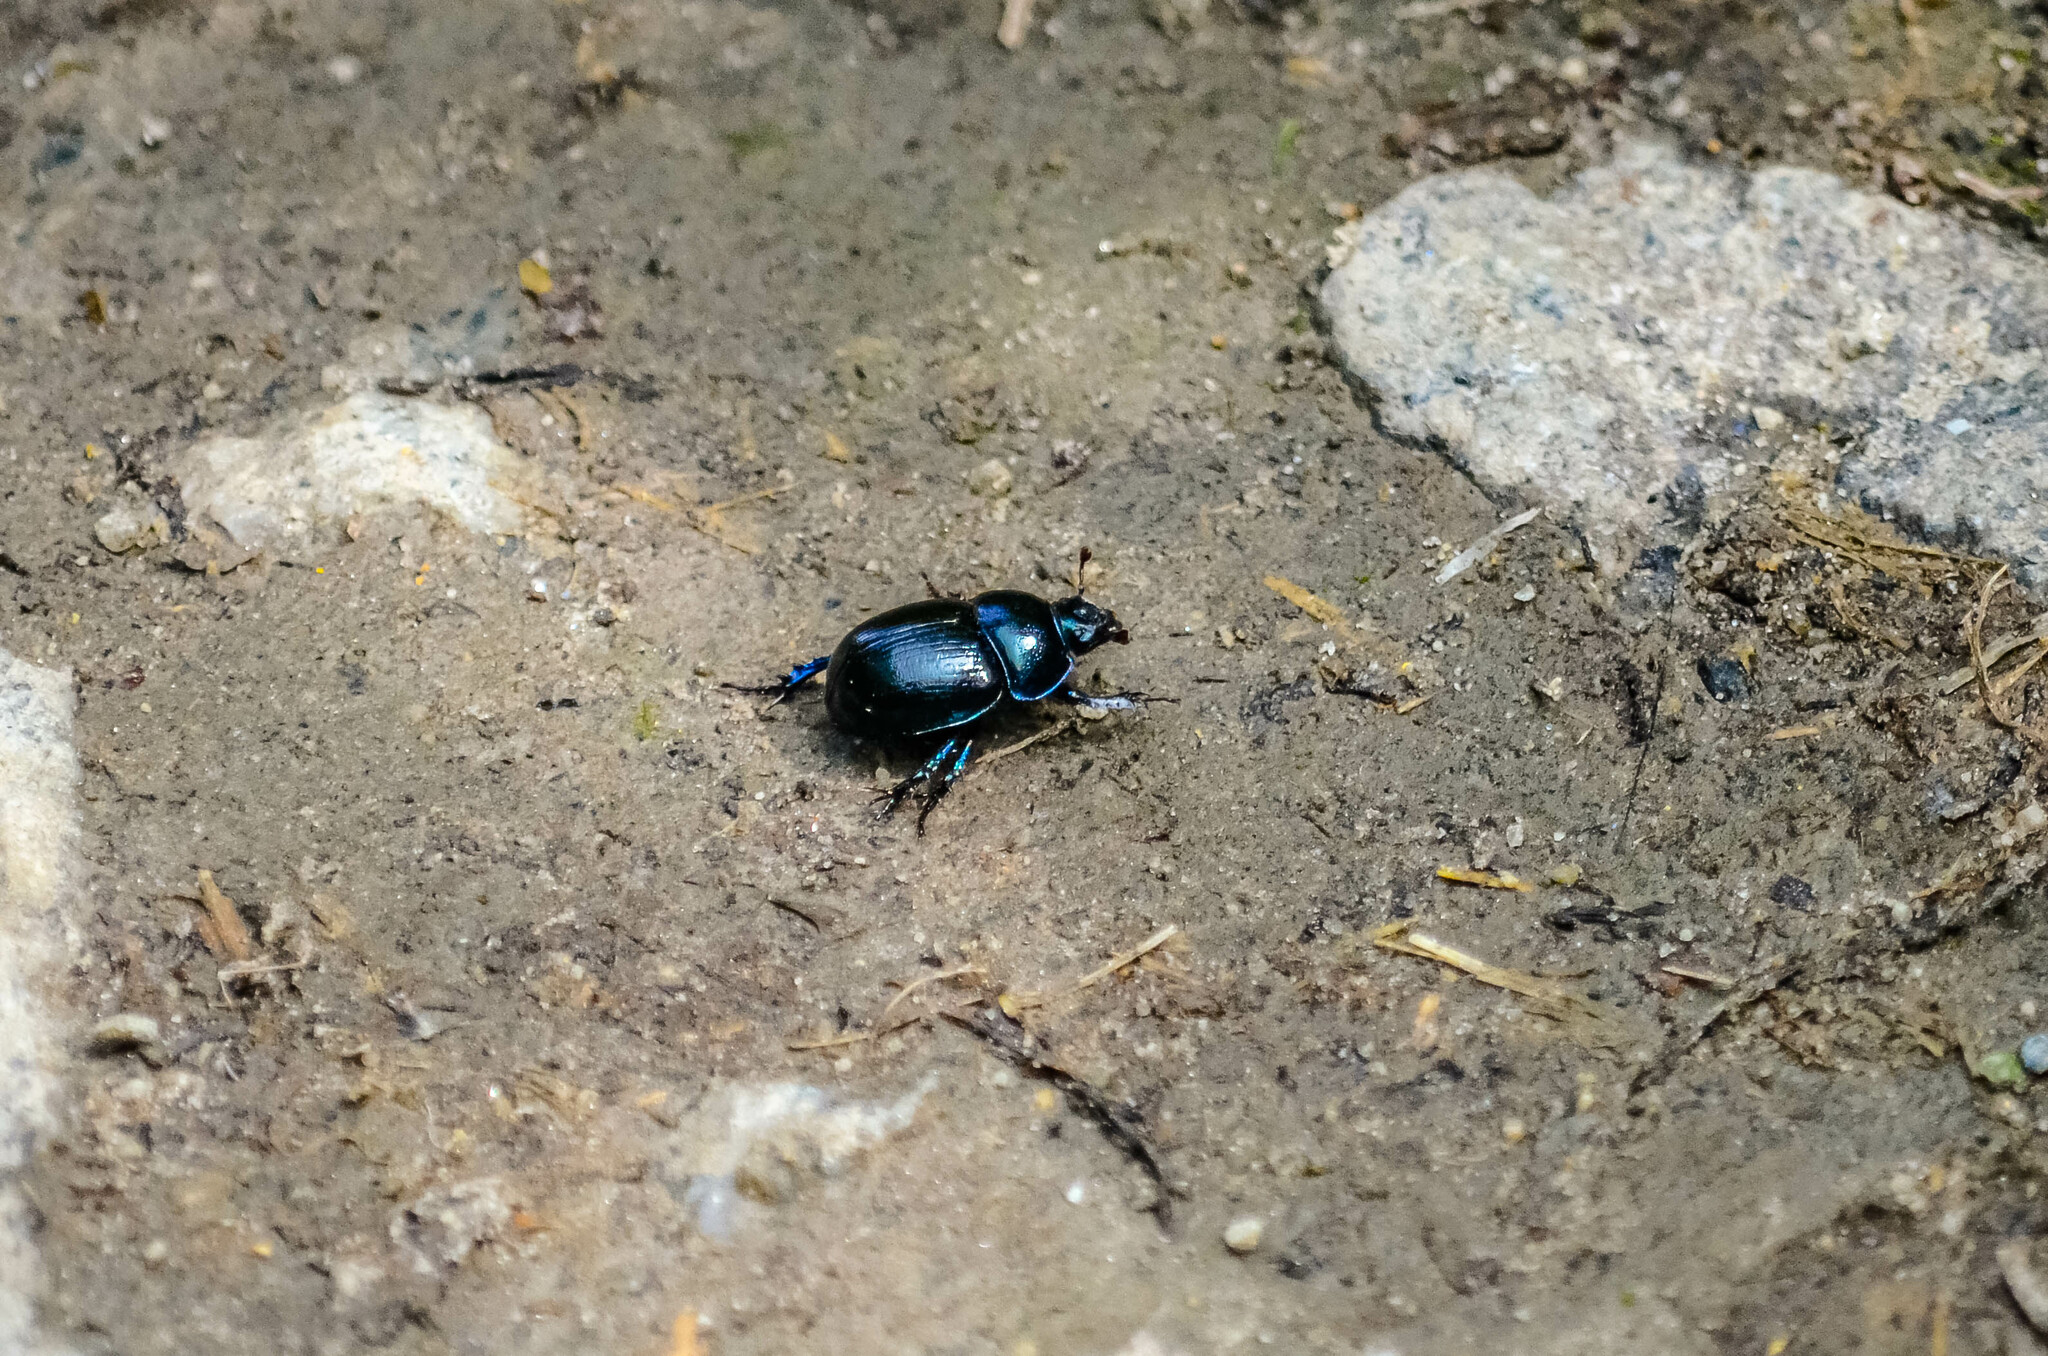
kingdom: Animalia
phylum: Arthropoda
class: Insecta
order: Coleoptera
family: Geotrupidae
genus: Anoplotrupes
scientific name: Anoplotrupes stercorosus
